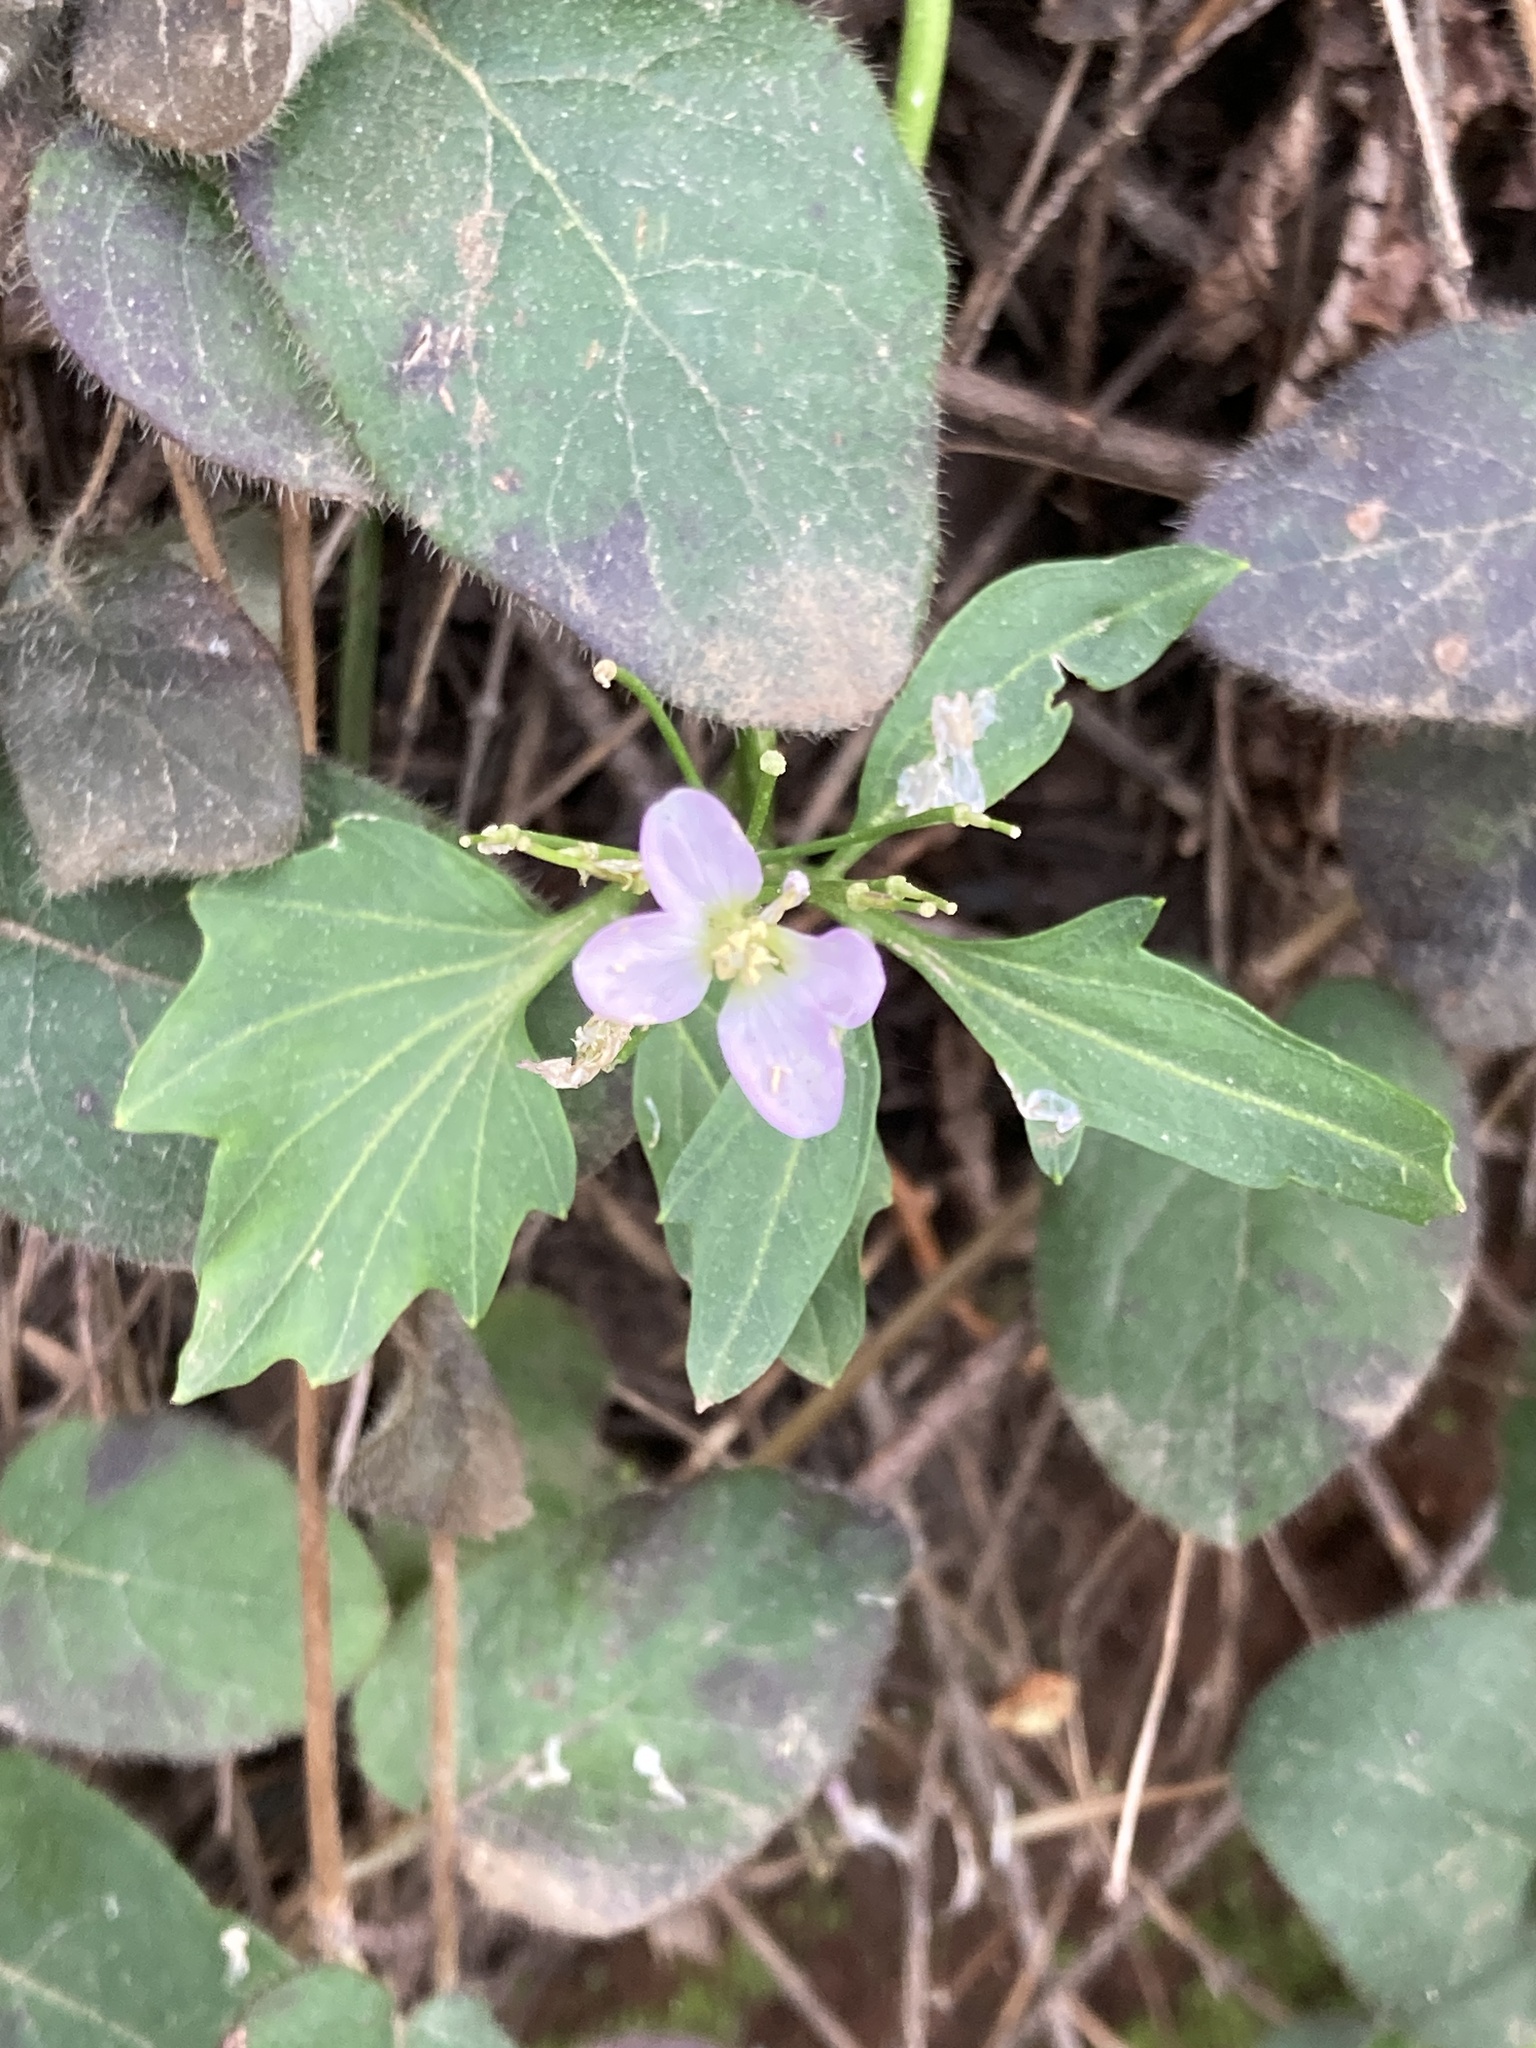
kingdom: Plantae
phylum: Tracheophyta
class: Magnoliopsida
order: Brassicales
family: Brassicaceae
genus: Cardamine
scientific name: Cardamine californica
